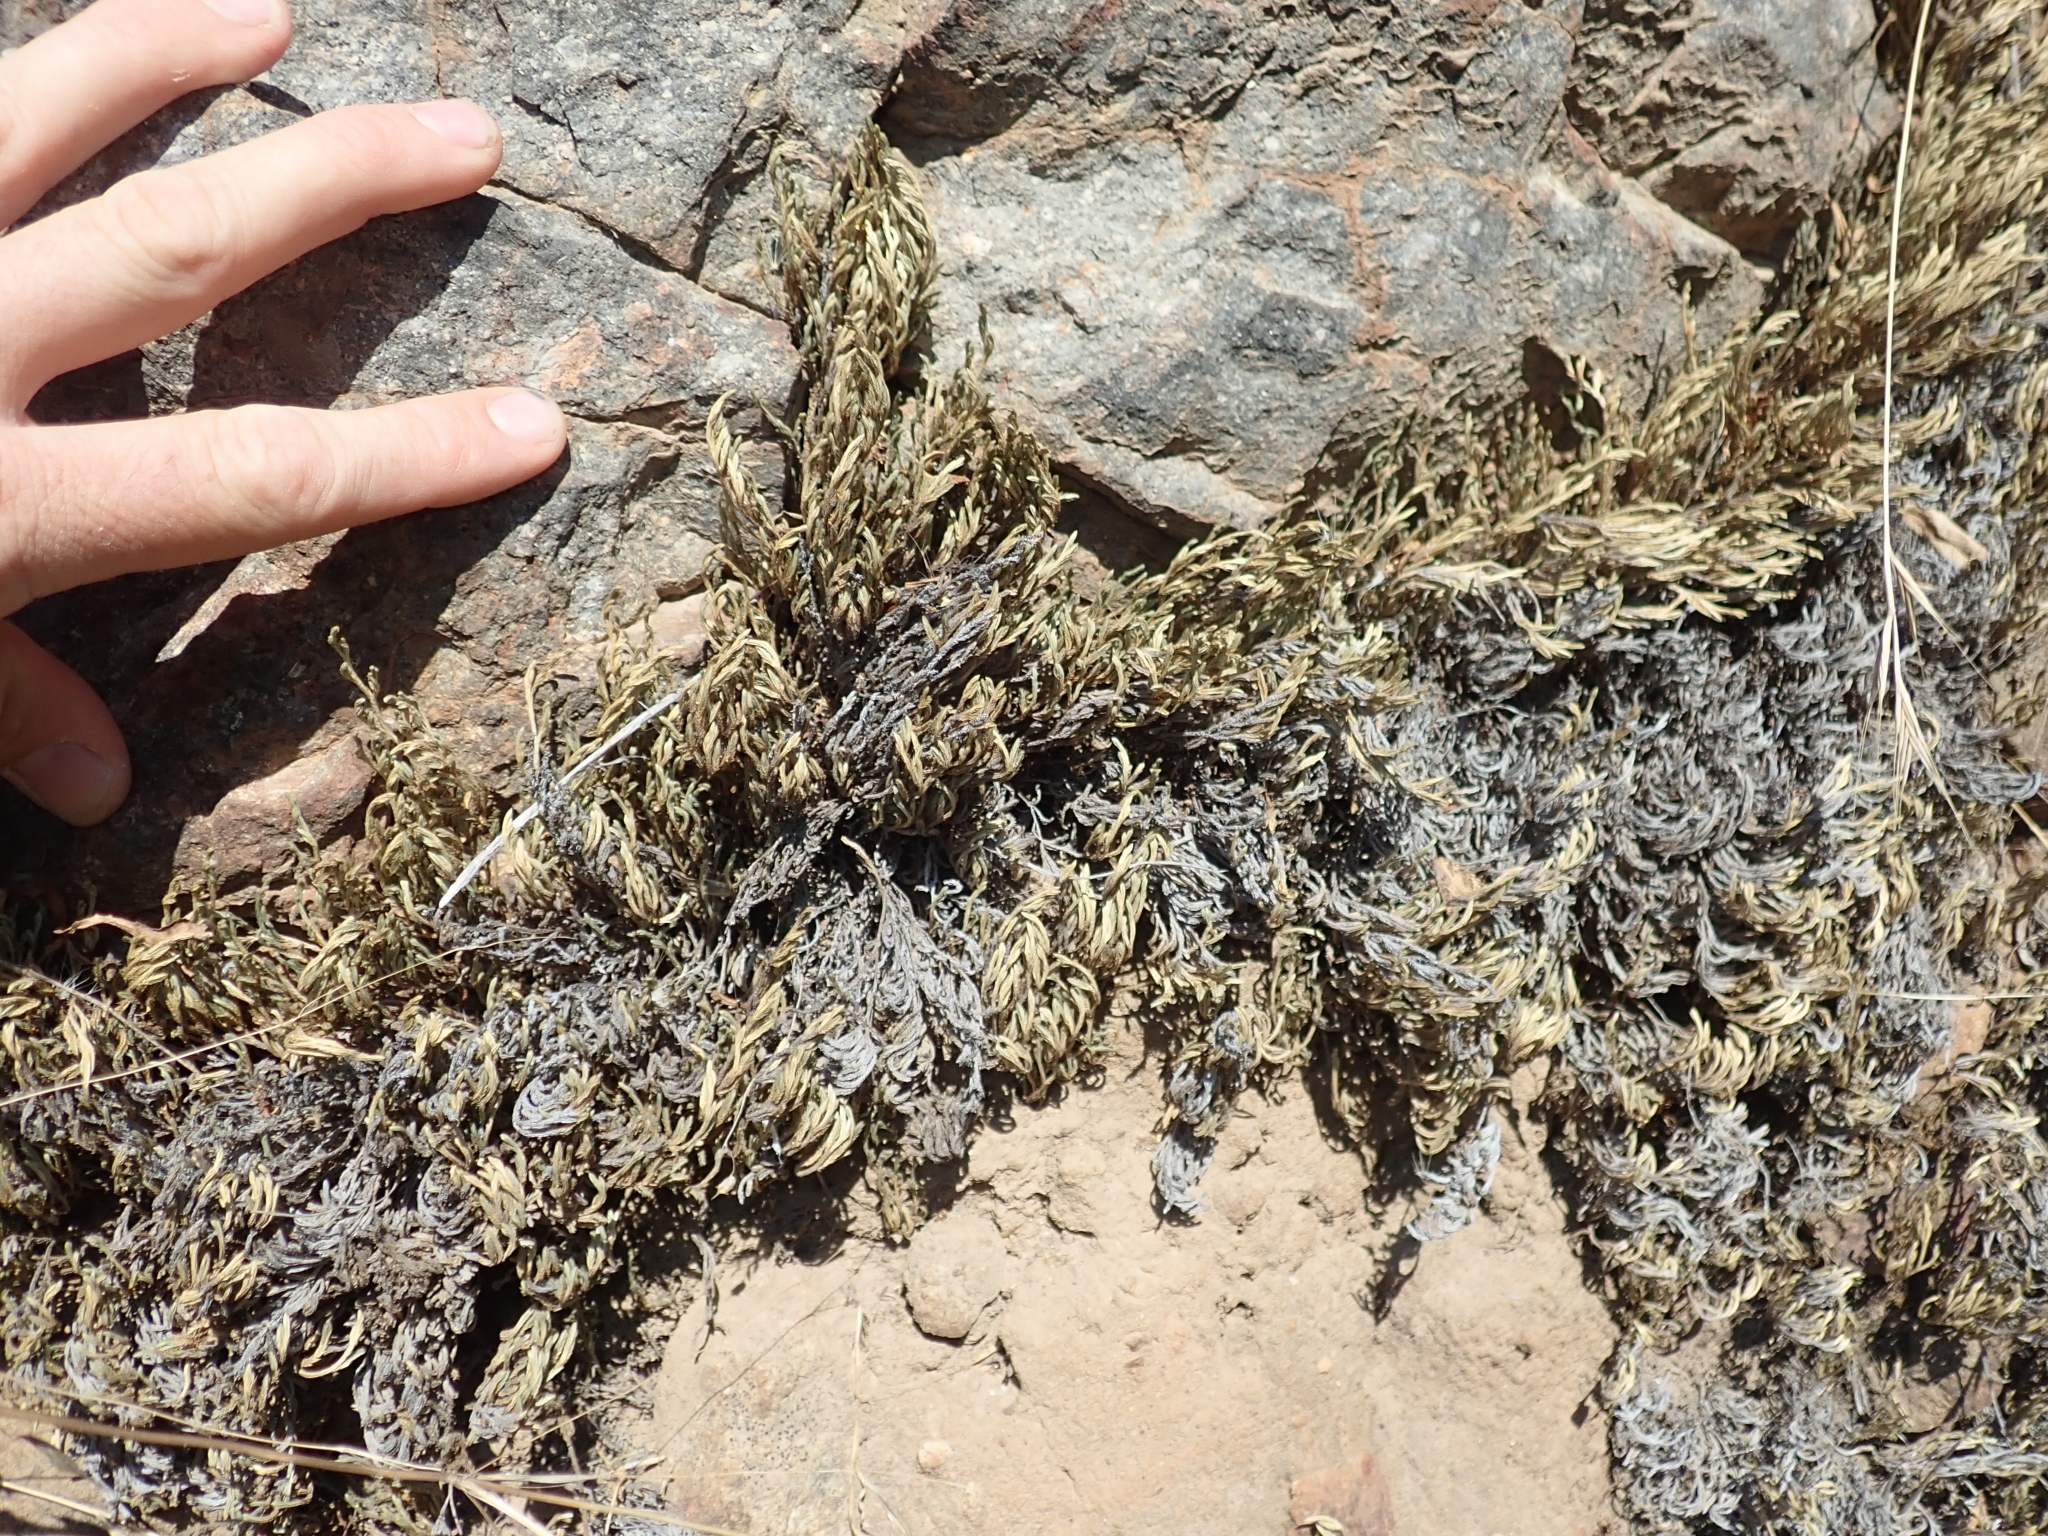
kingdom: Plantae
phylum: Tracheophyta
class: Lycopodiopsida
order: Selaginellales
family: Selaginellaceae
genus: Selaginella
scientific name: Selaginella bigelovii
